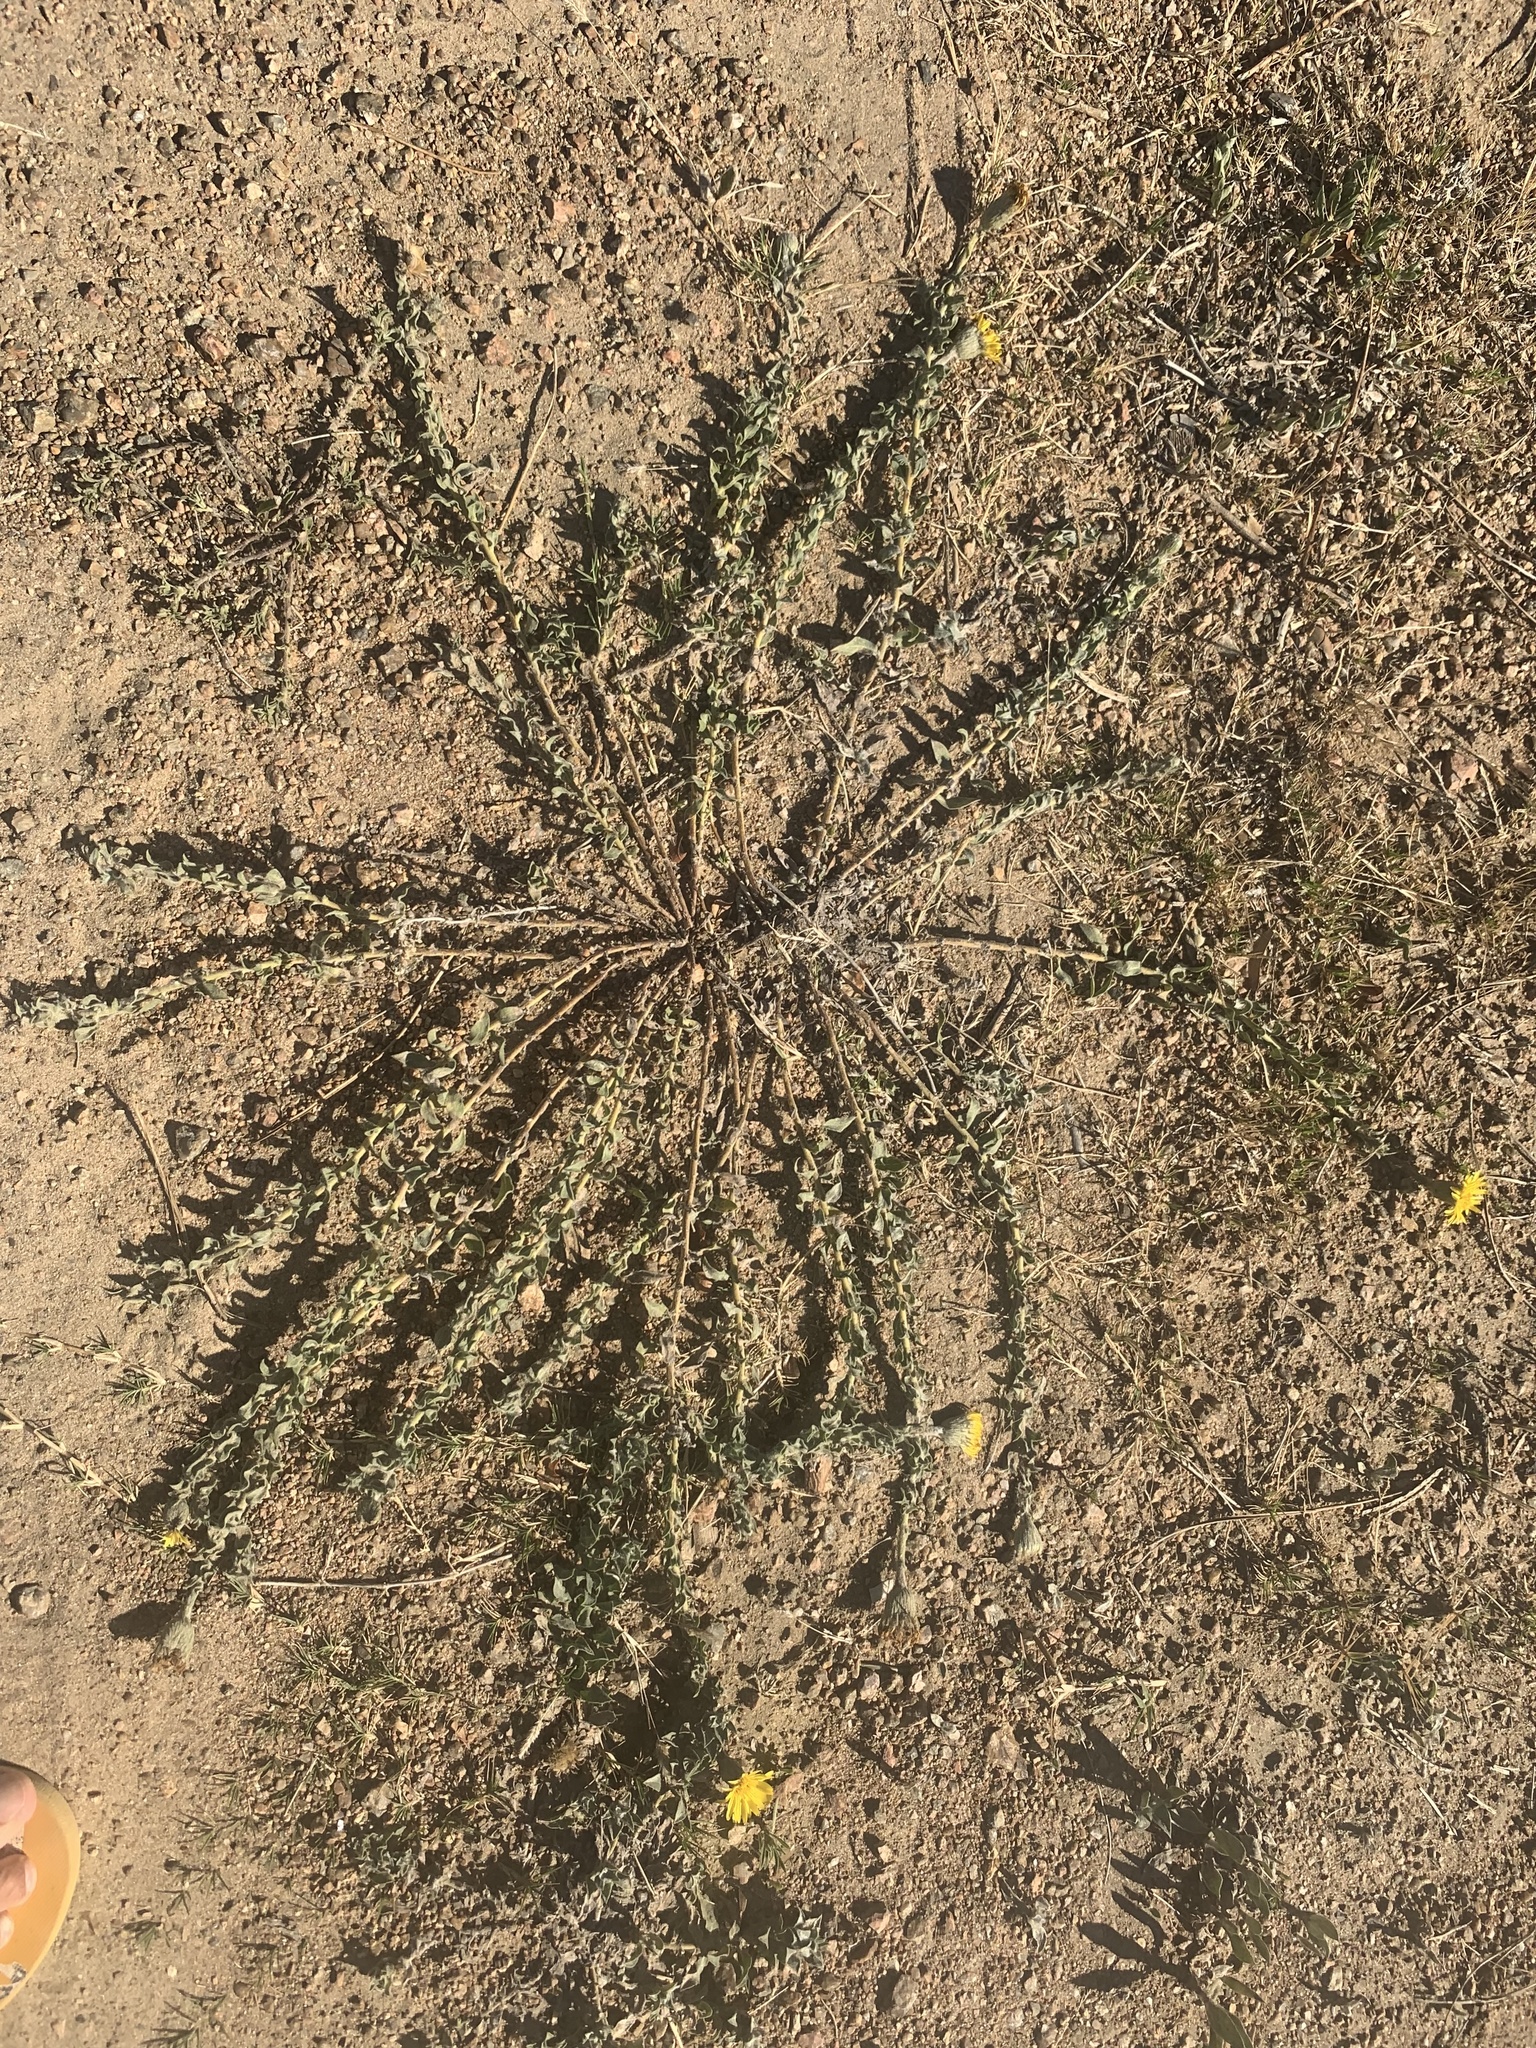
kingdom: Plantae
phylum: Tracheophyta
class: Magnoliopsida
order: Asterales
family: Asteraceae
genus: Noticastrum
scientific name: Noticastrum acuminatum
